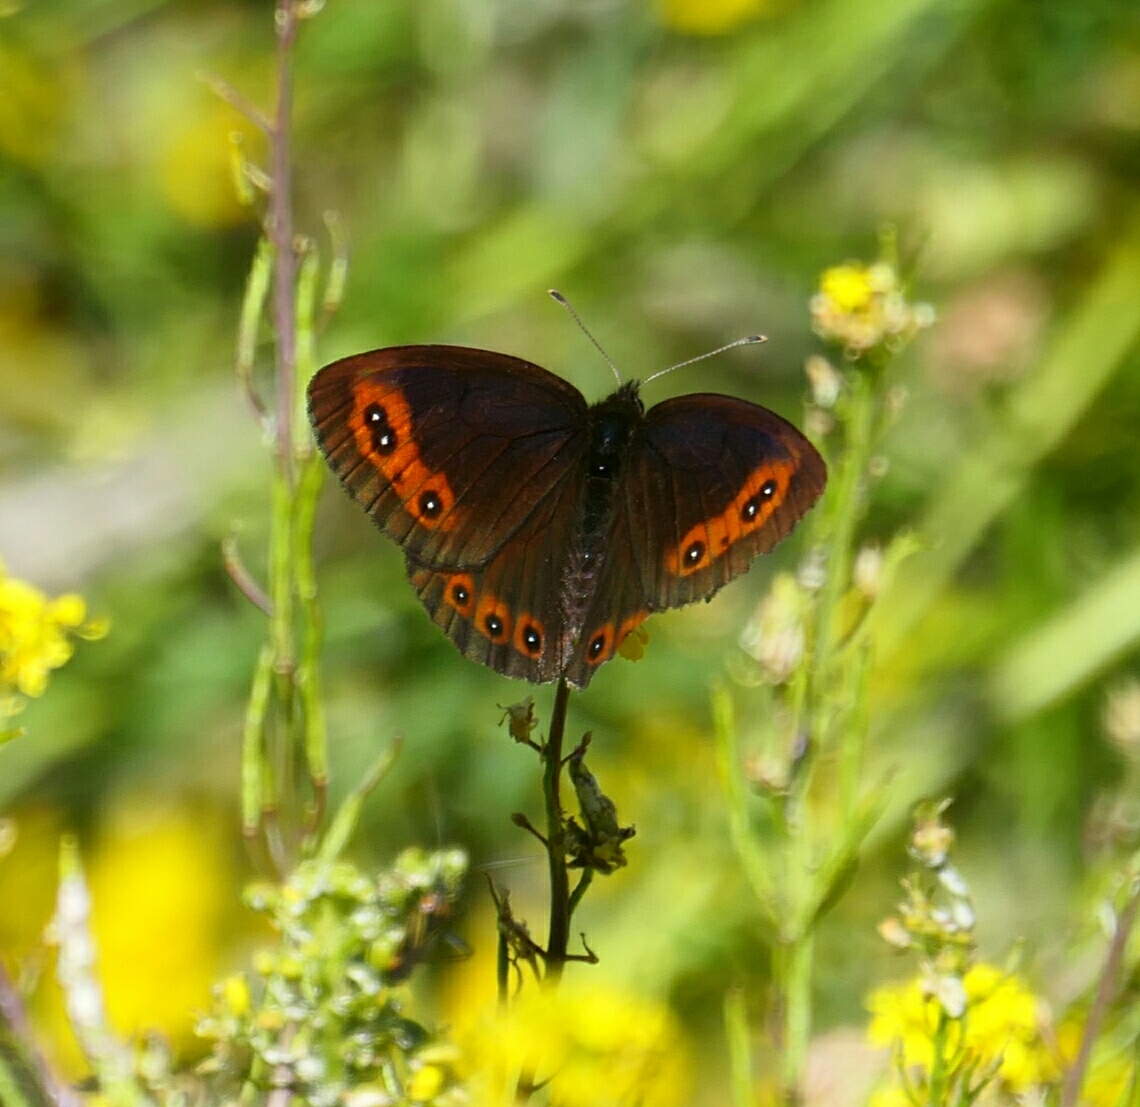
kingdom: Animalia
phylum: Arthropoda
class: Insecta
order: Lepidoptera
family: Nymphalidae
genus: Erebia
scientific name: Erebia palarica
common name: Chapman's ringlet
